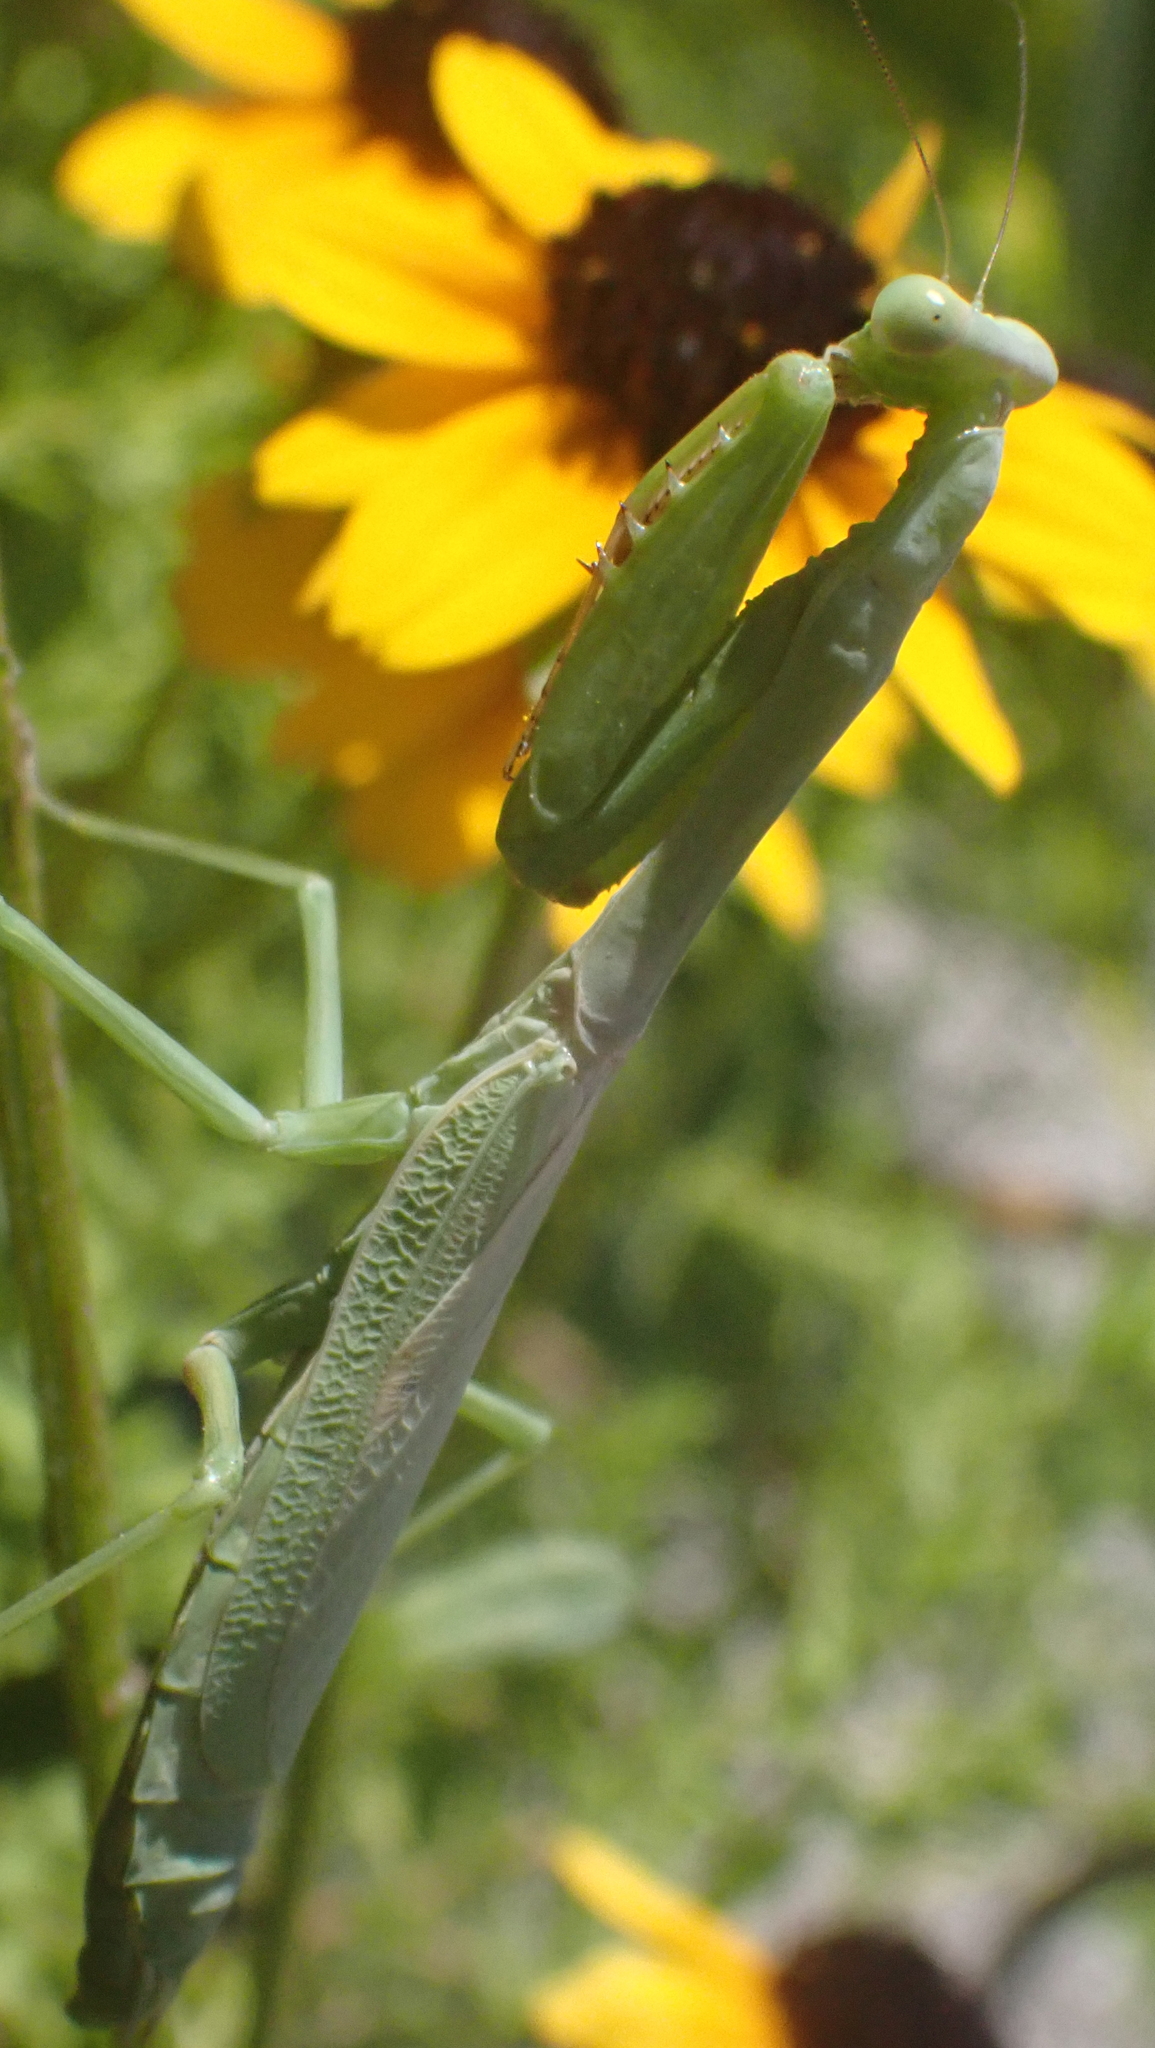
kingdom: Animalia
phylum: Arthropoda
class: Insecta
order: Mantodea
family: Mantidae
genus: Stagmomantis
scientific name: Stagmomantis carolina
